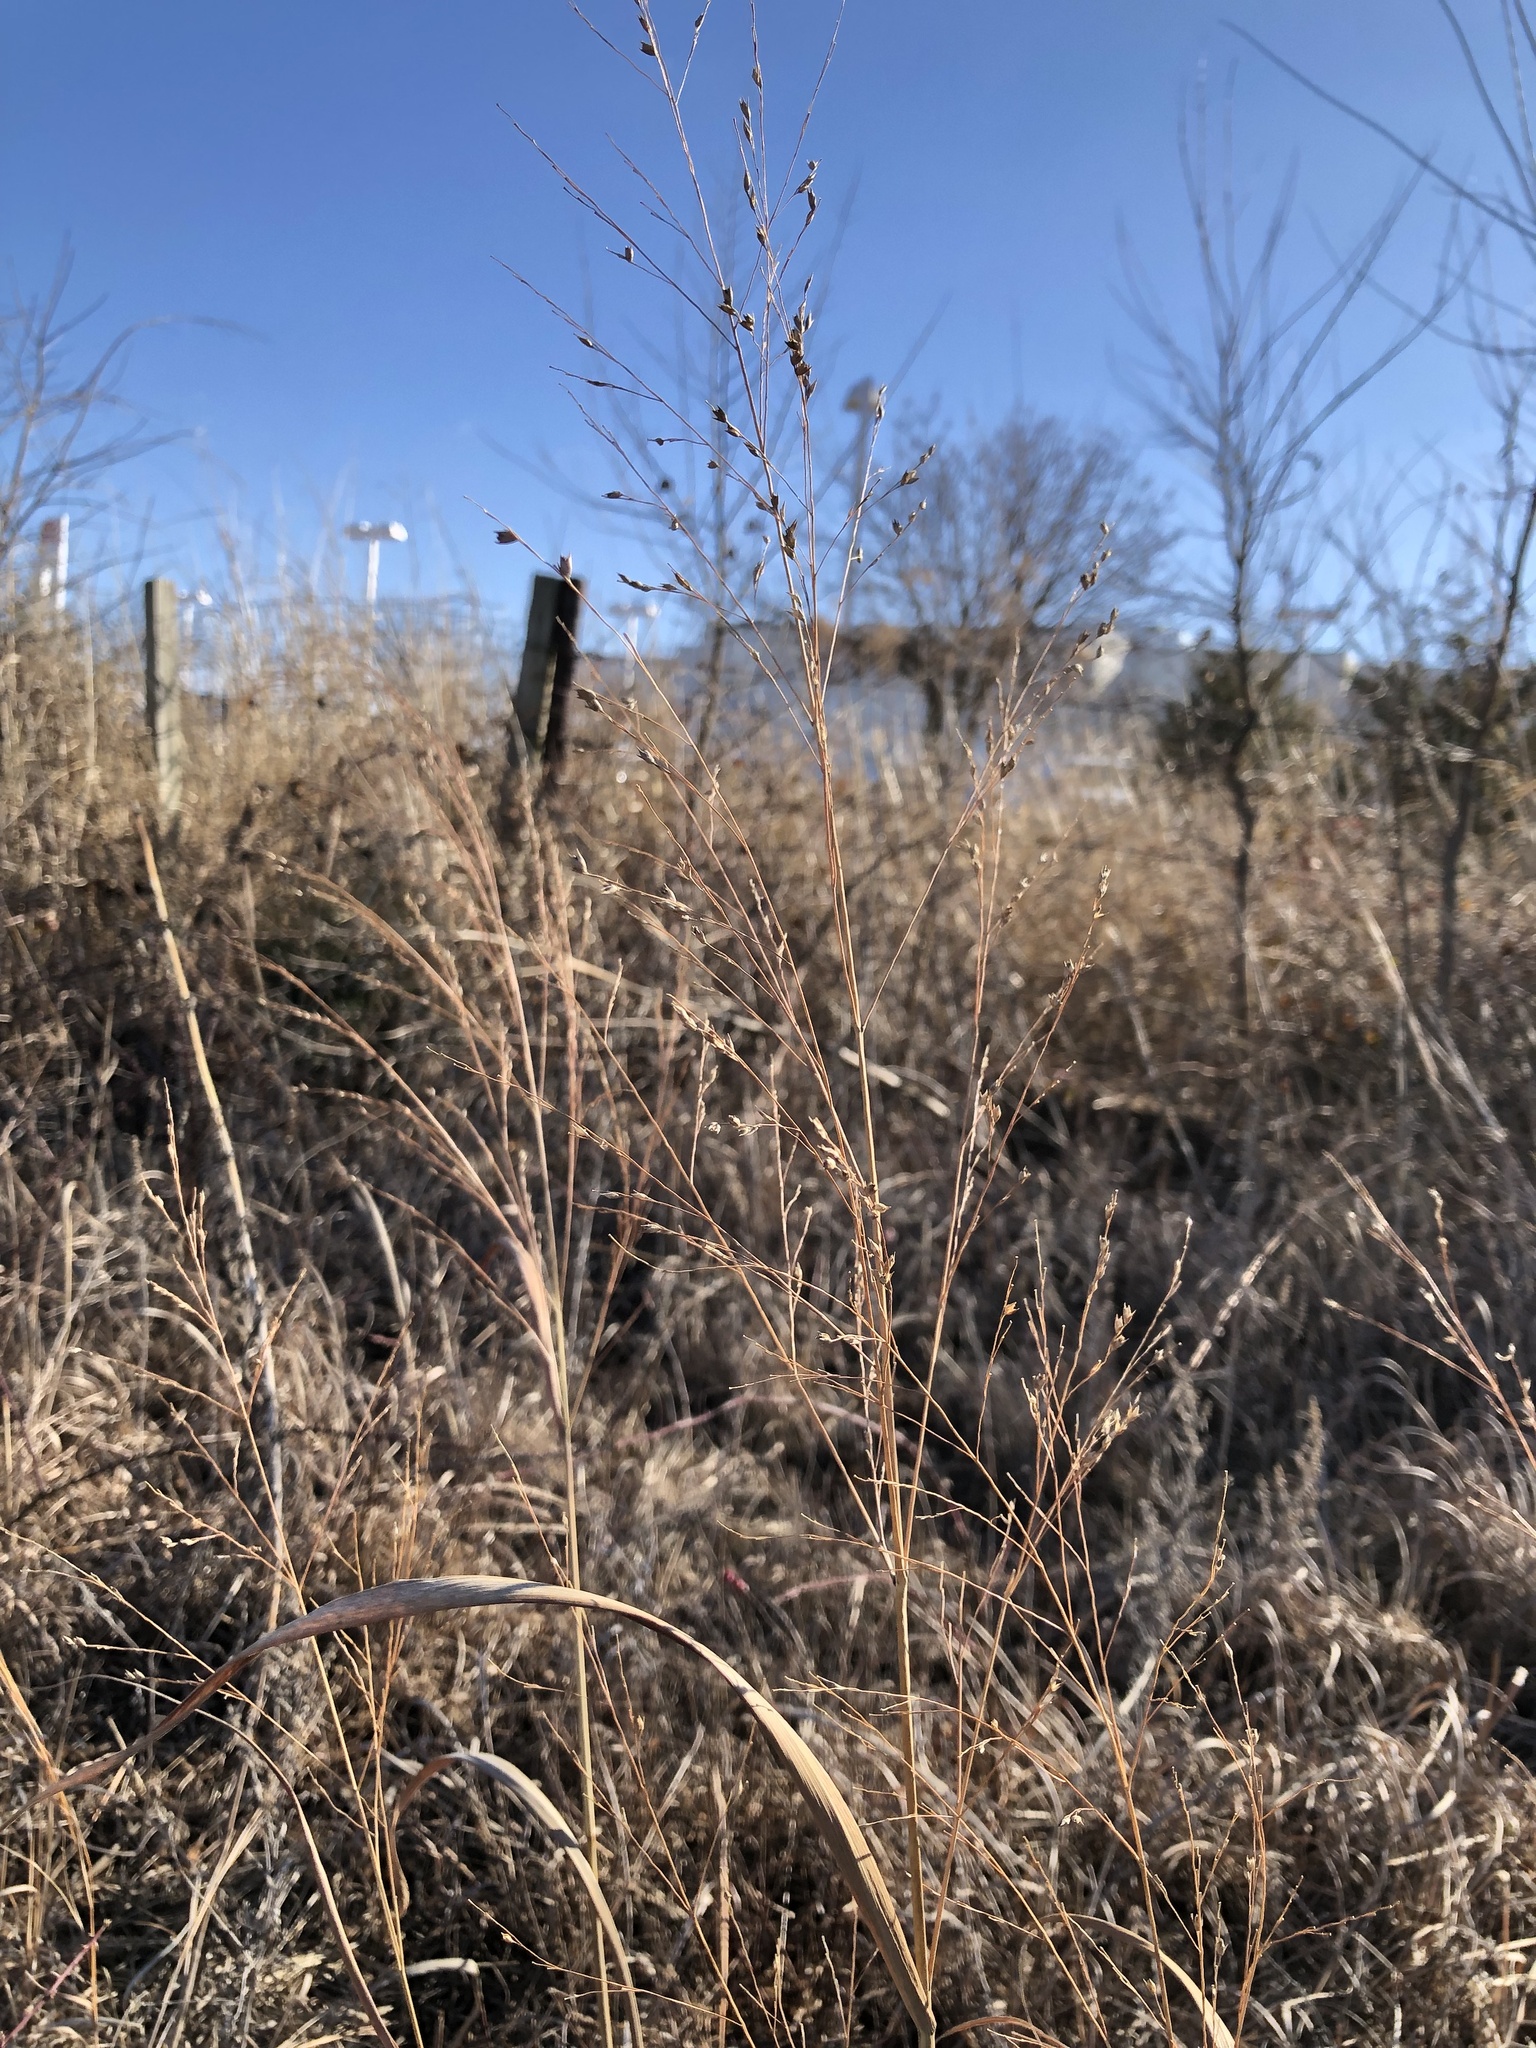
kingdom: Plantae
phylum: Tracheophyta
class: Liliopsida
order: Poales
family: Poaceae
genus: Panicum
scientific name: Panicum virgatum
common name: Switchgrass
